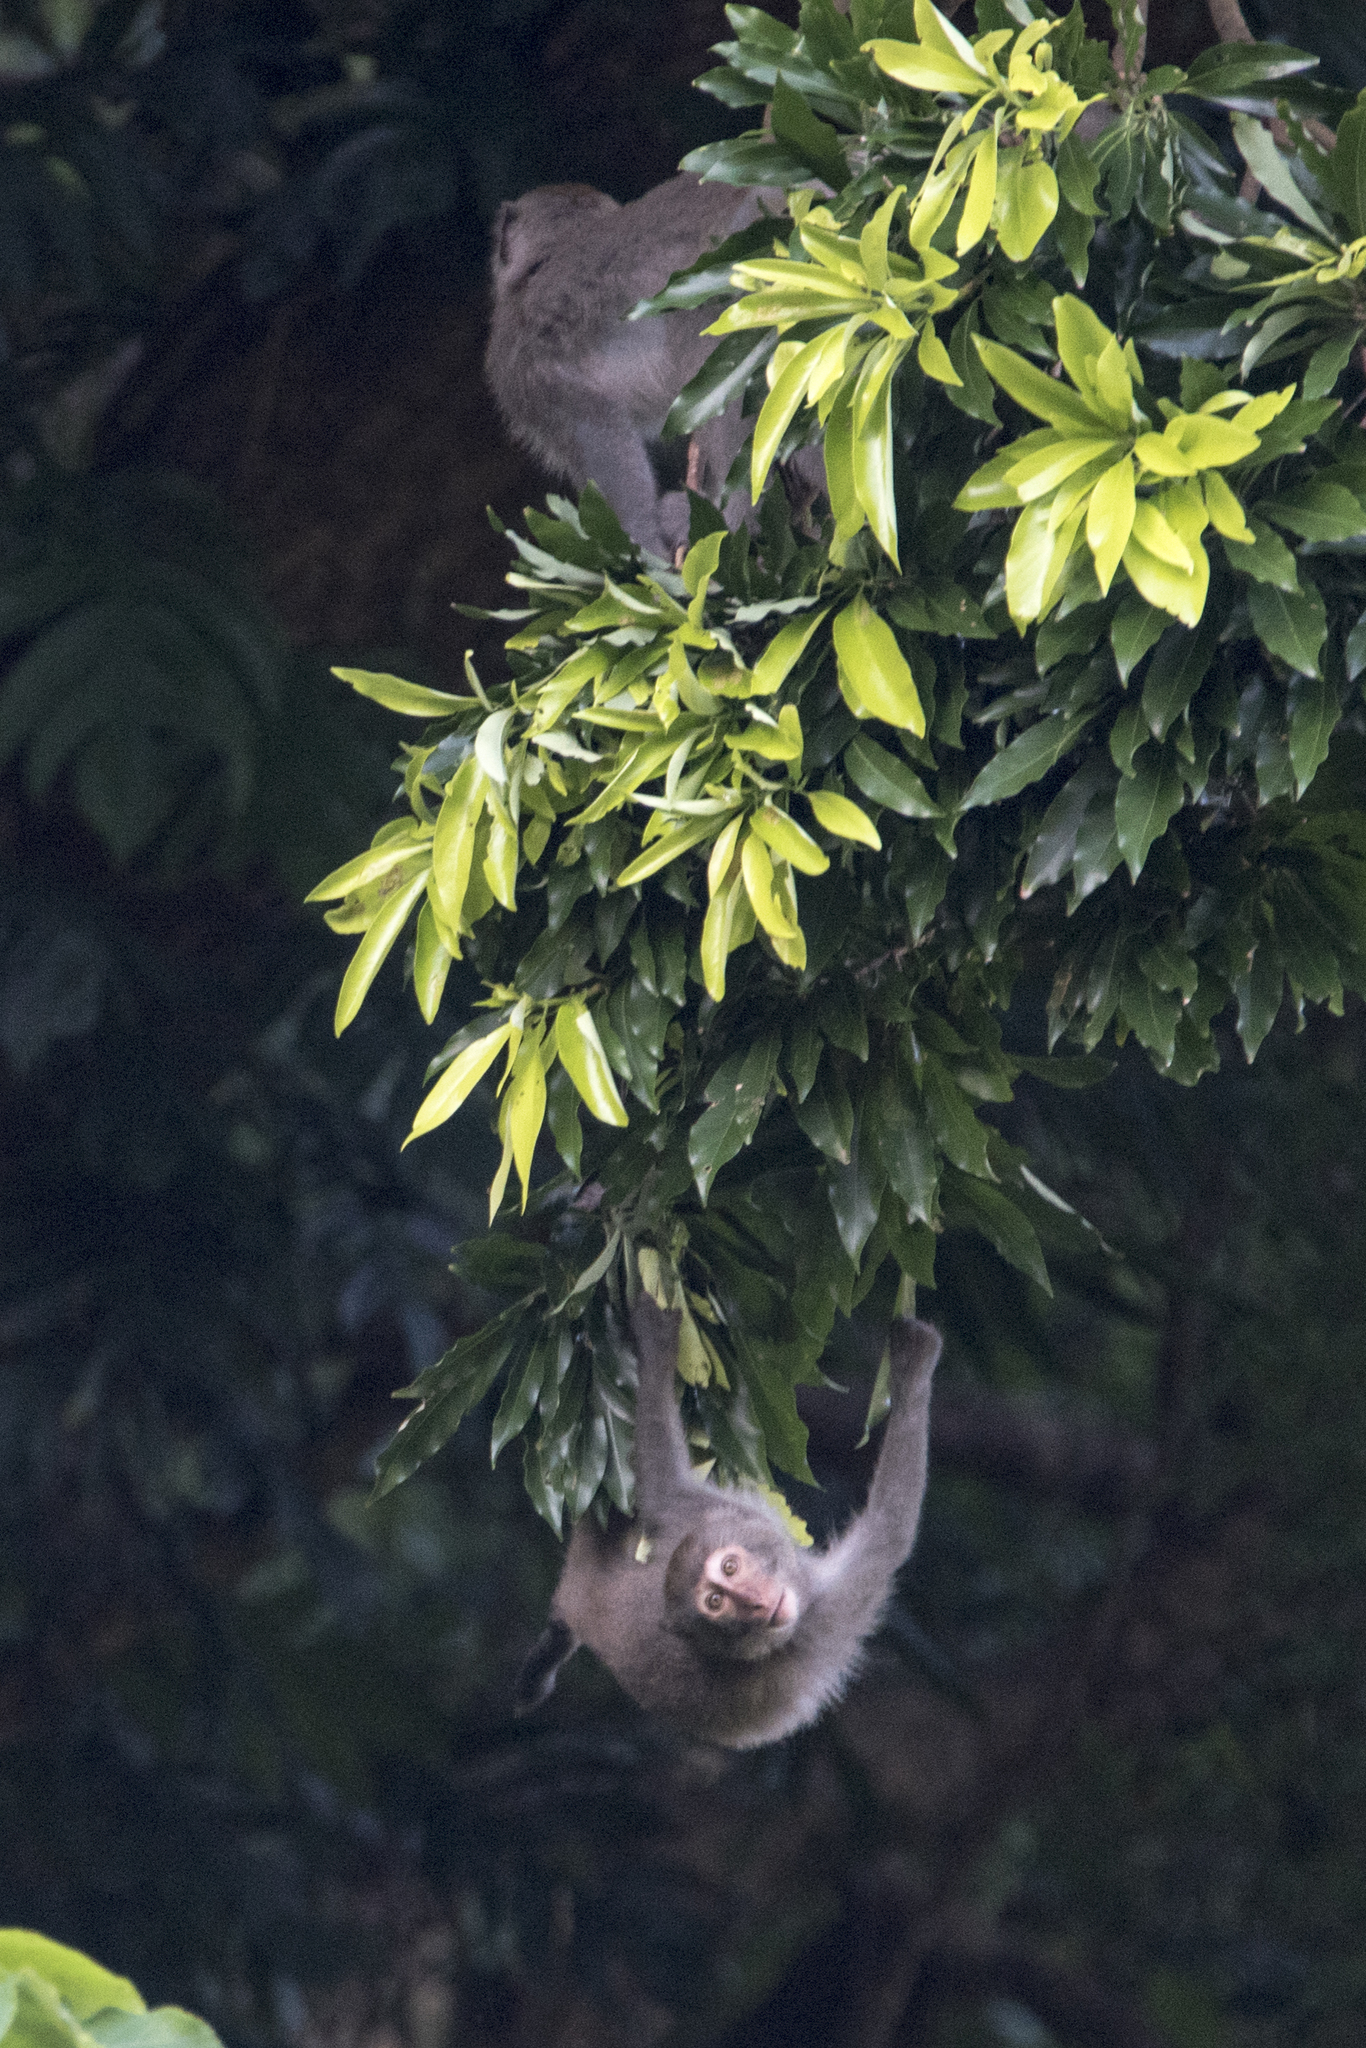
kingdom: Animalia
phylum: Chordata
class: Mammalia
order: Primates
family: Cercopithecidae
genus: Macaca
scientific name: Macaca cyclopis
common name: Formosan rock macaque
